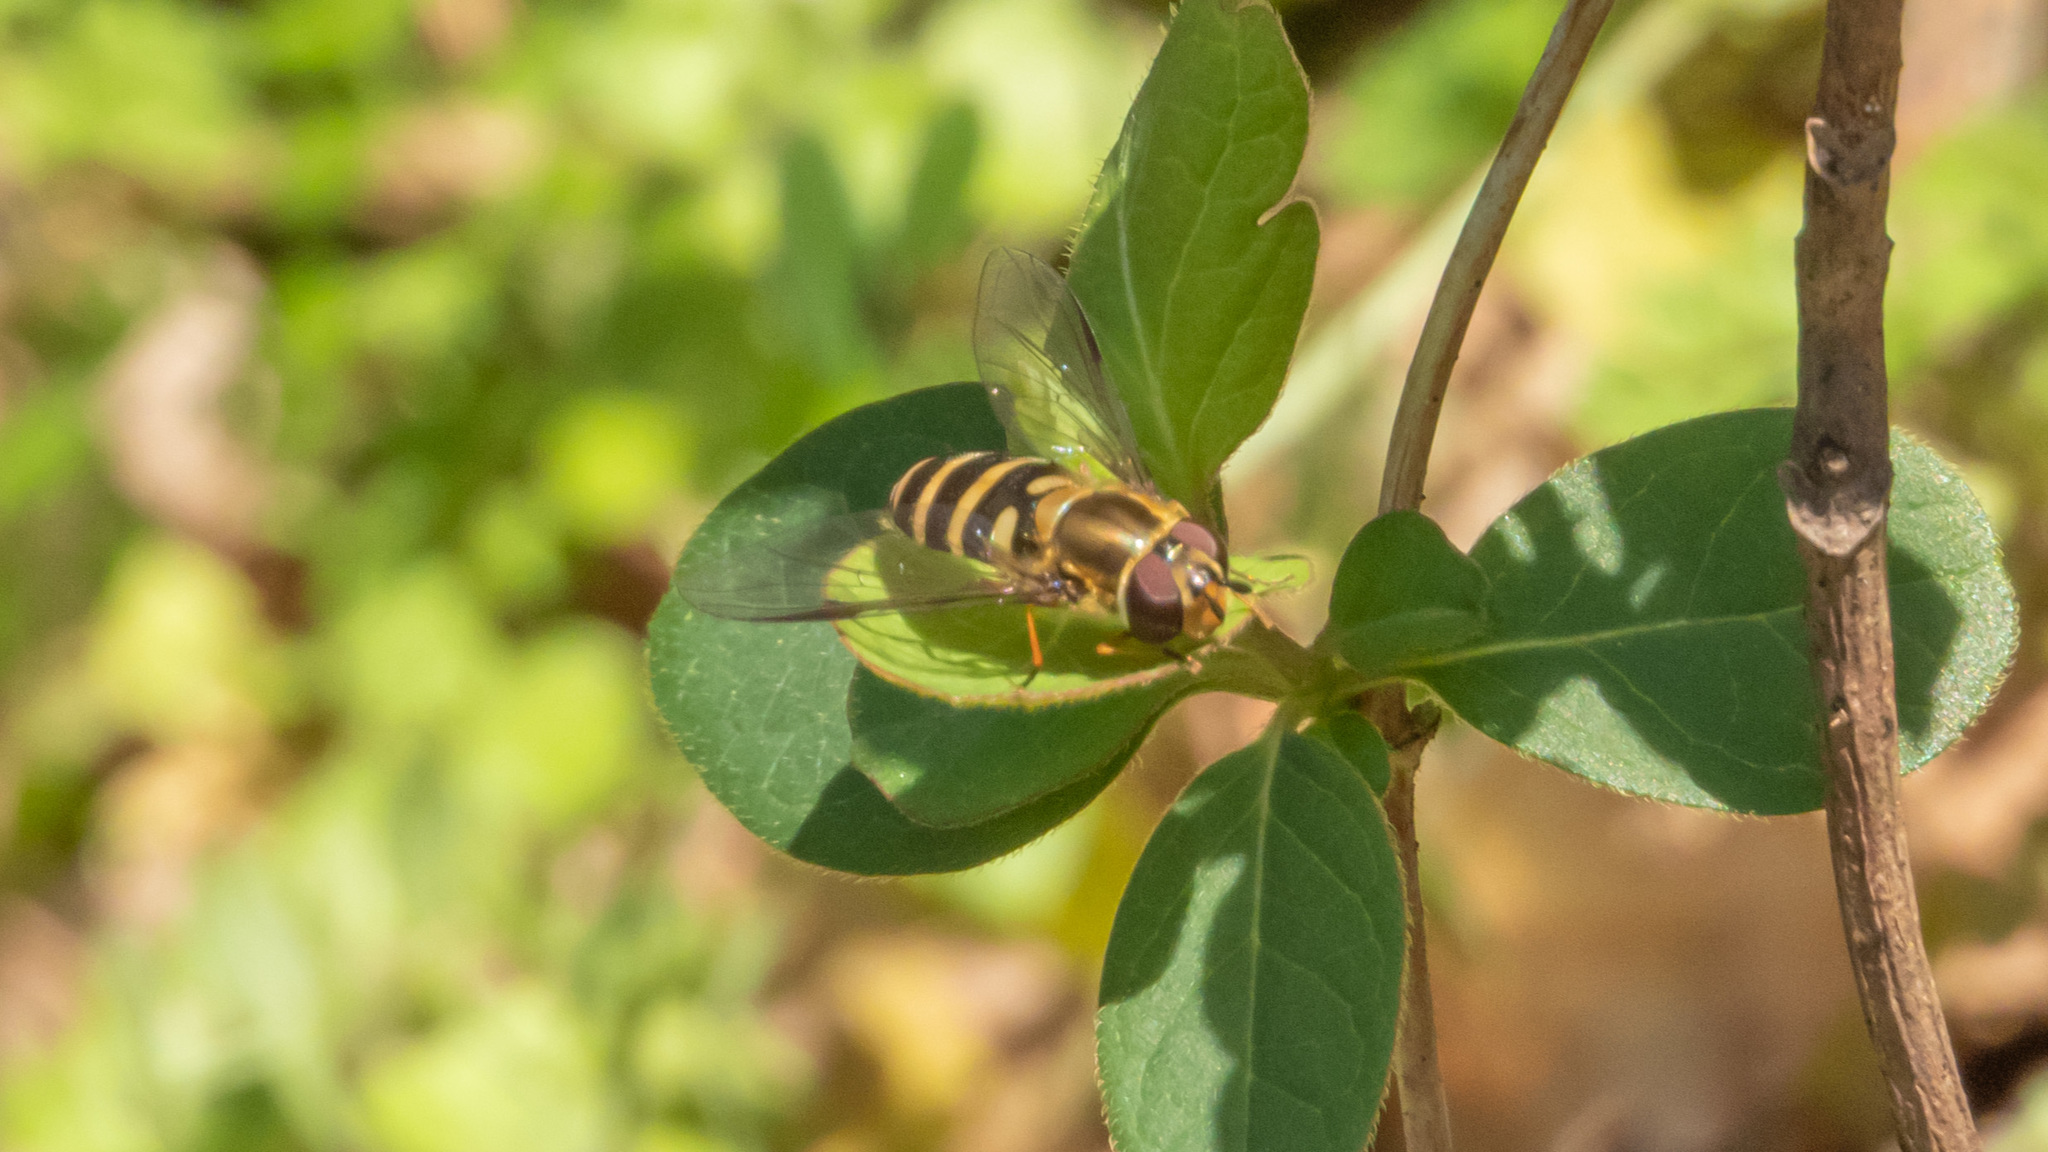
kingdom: Animalia
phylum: Arthropoda
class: Insecta
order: Diptera
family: Syrphidae
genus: Syrphus
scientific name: Syrphus
